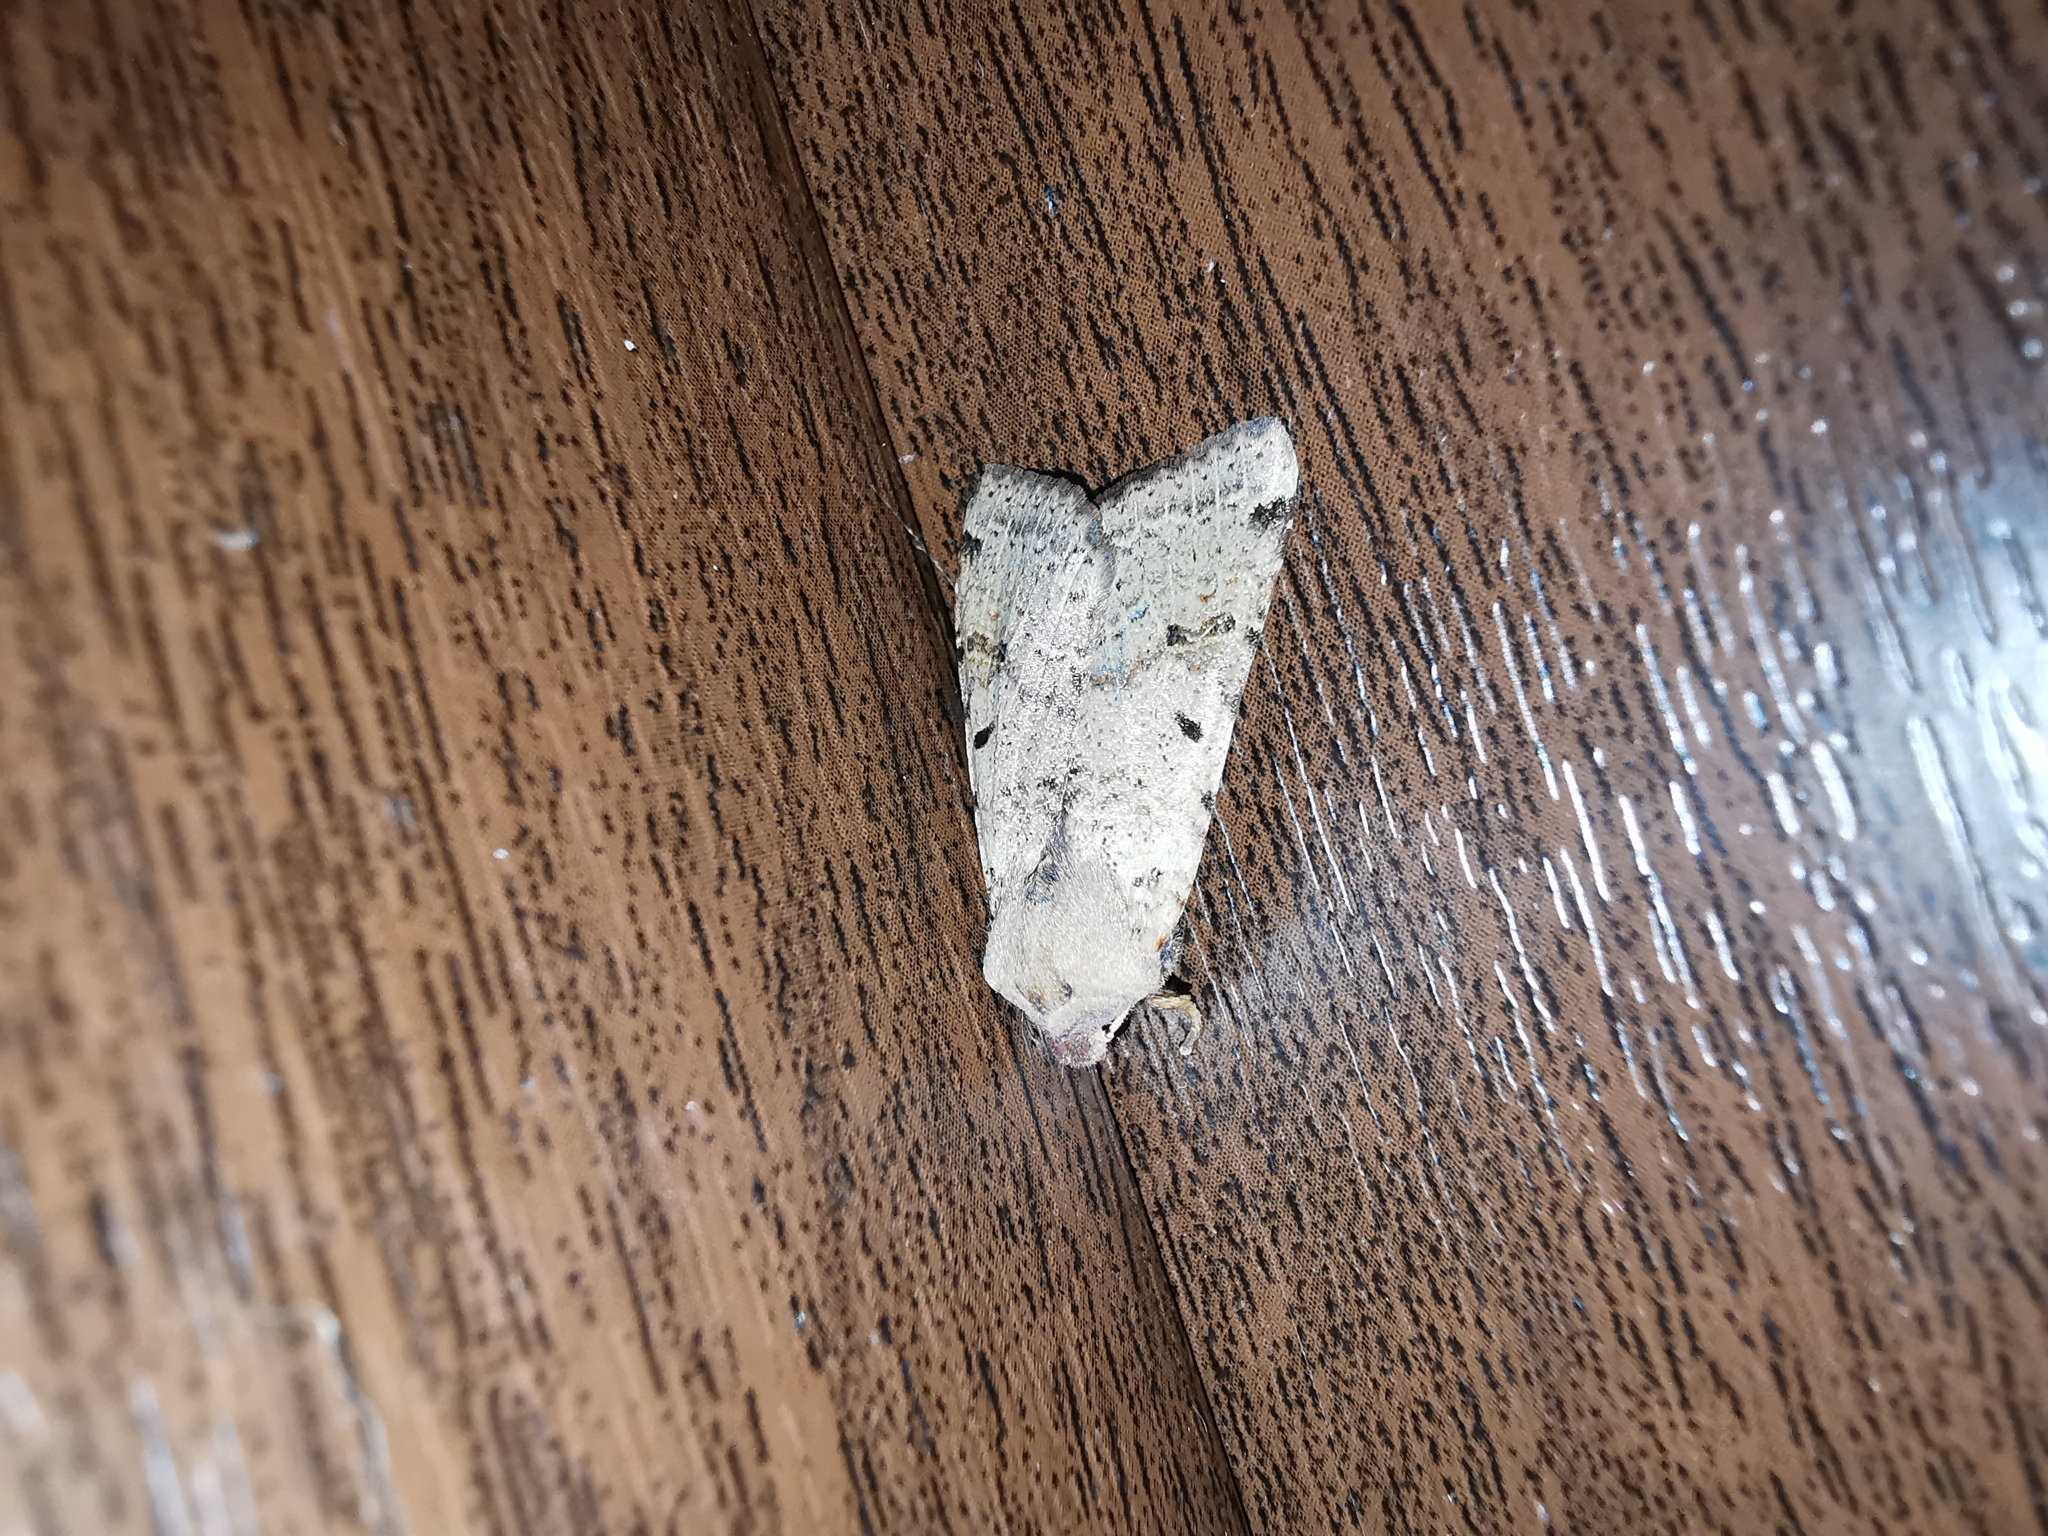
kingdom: Animalia
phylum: Arthropoda
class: Insecta
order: Lepidoptera
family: Noctuidae
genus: Agrochola
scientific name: Agrochola lychnidis
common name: Beaded chestnut
